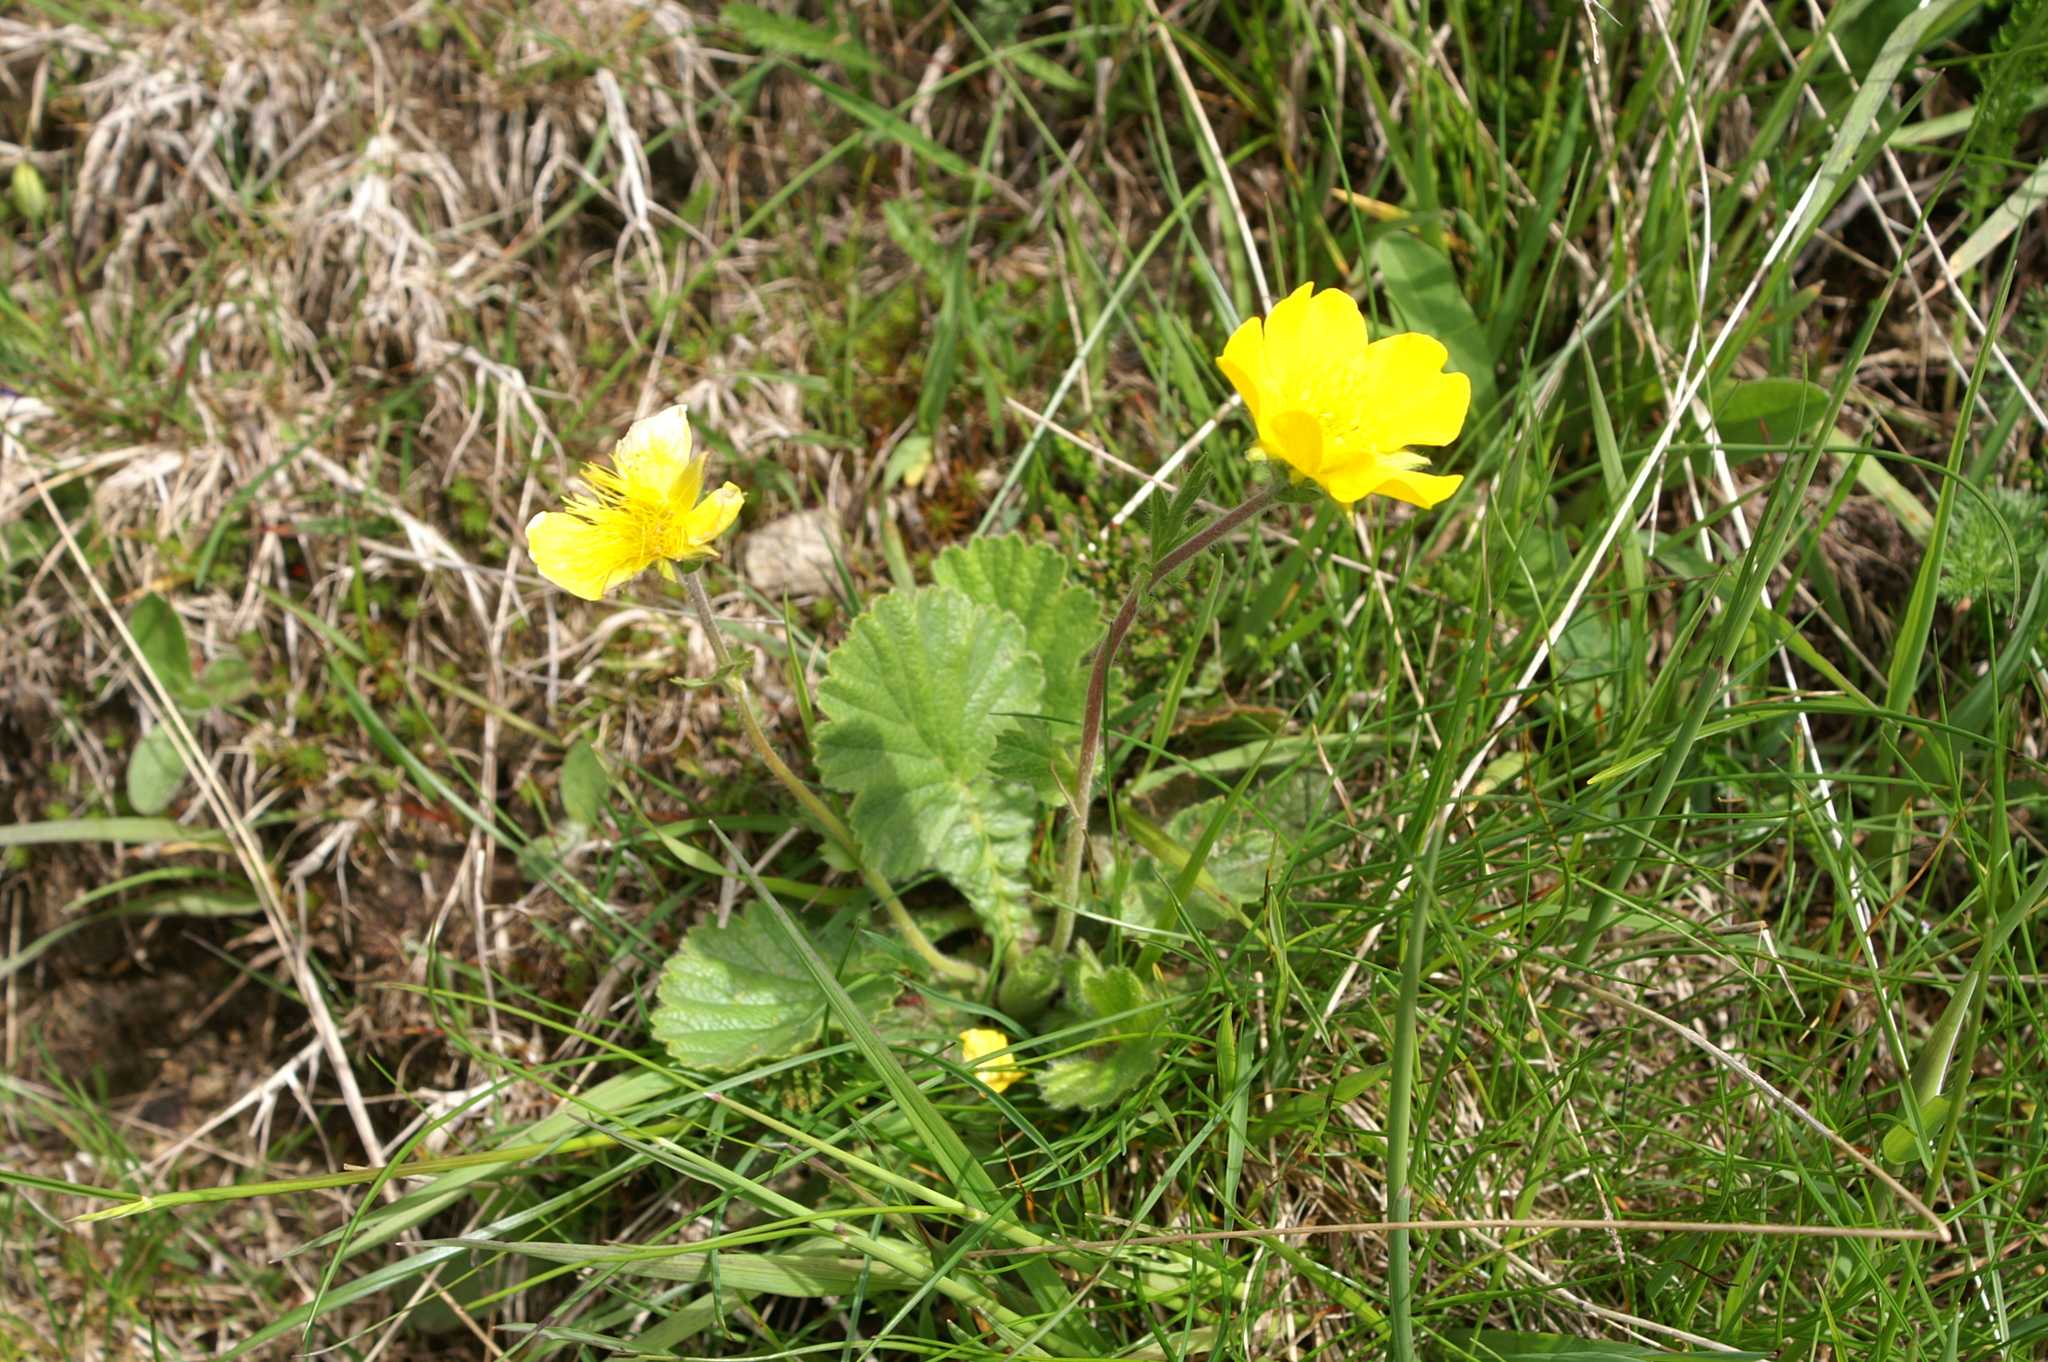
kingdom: Plantae
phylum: Tracheophyta
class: Magnoliopsida
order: Rosales
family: Rosaceae
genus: Geum
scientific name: Geum montanum
